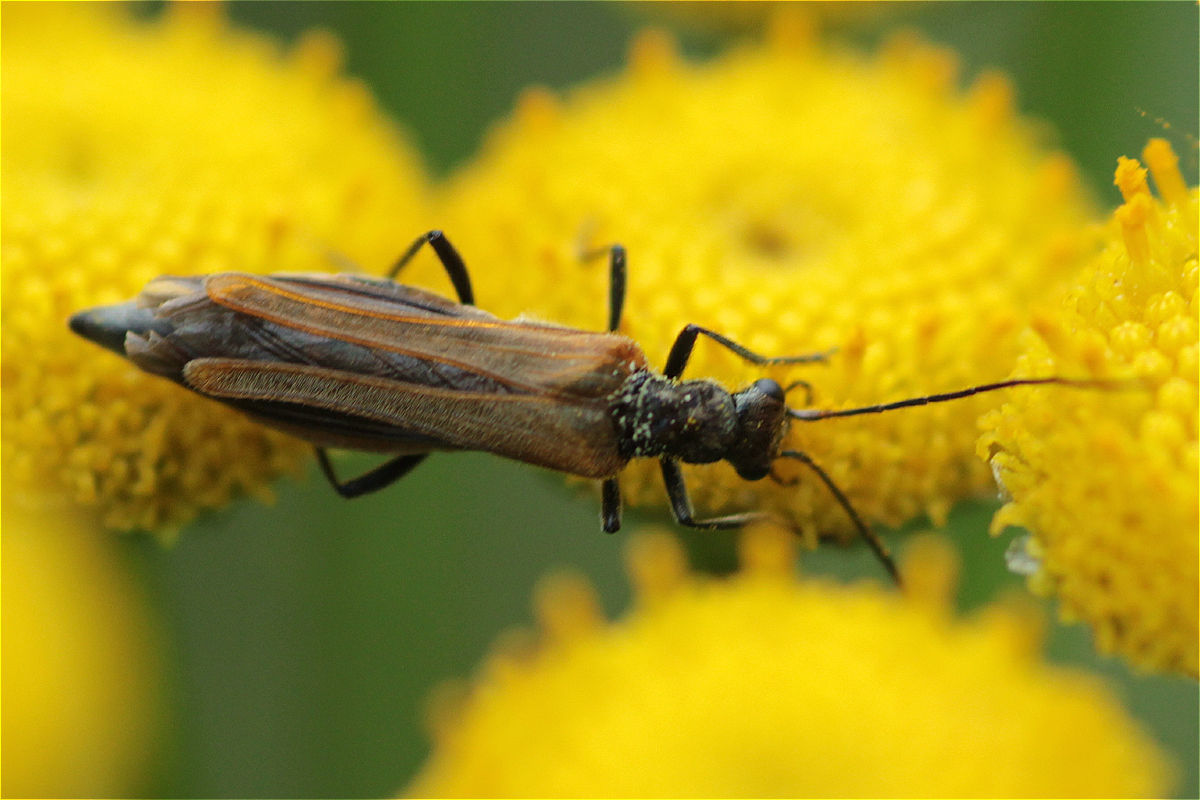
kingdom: Animalia
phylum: Arthropoda
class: Insecta
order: Coleoptera
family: Oedemeridae
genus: Oedemera
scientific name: Oedemera femorata
